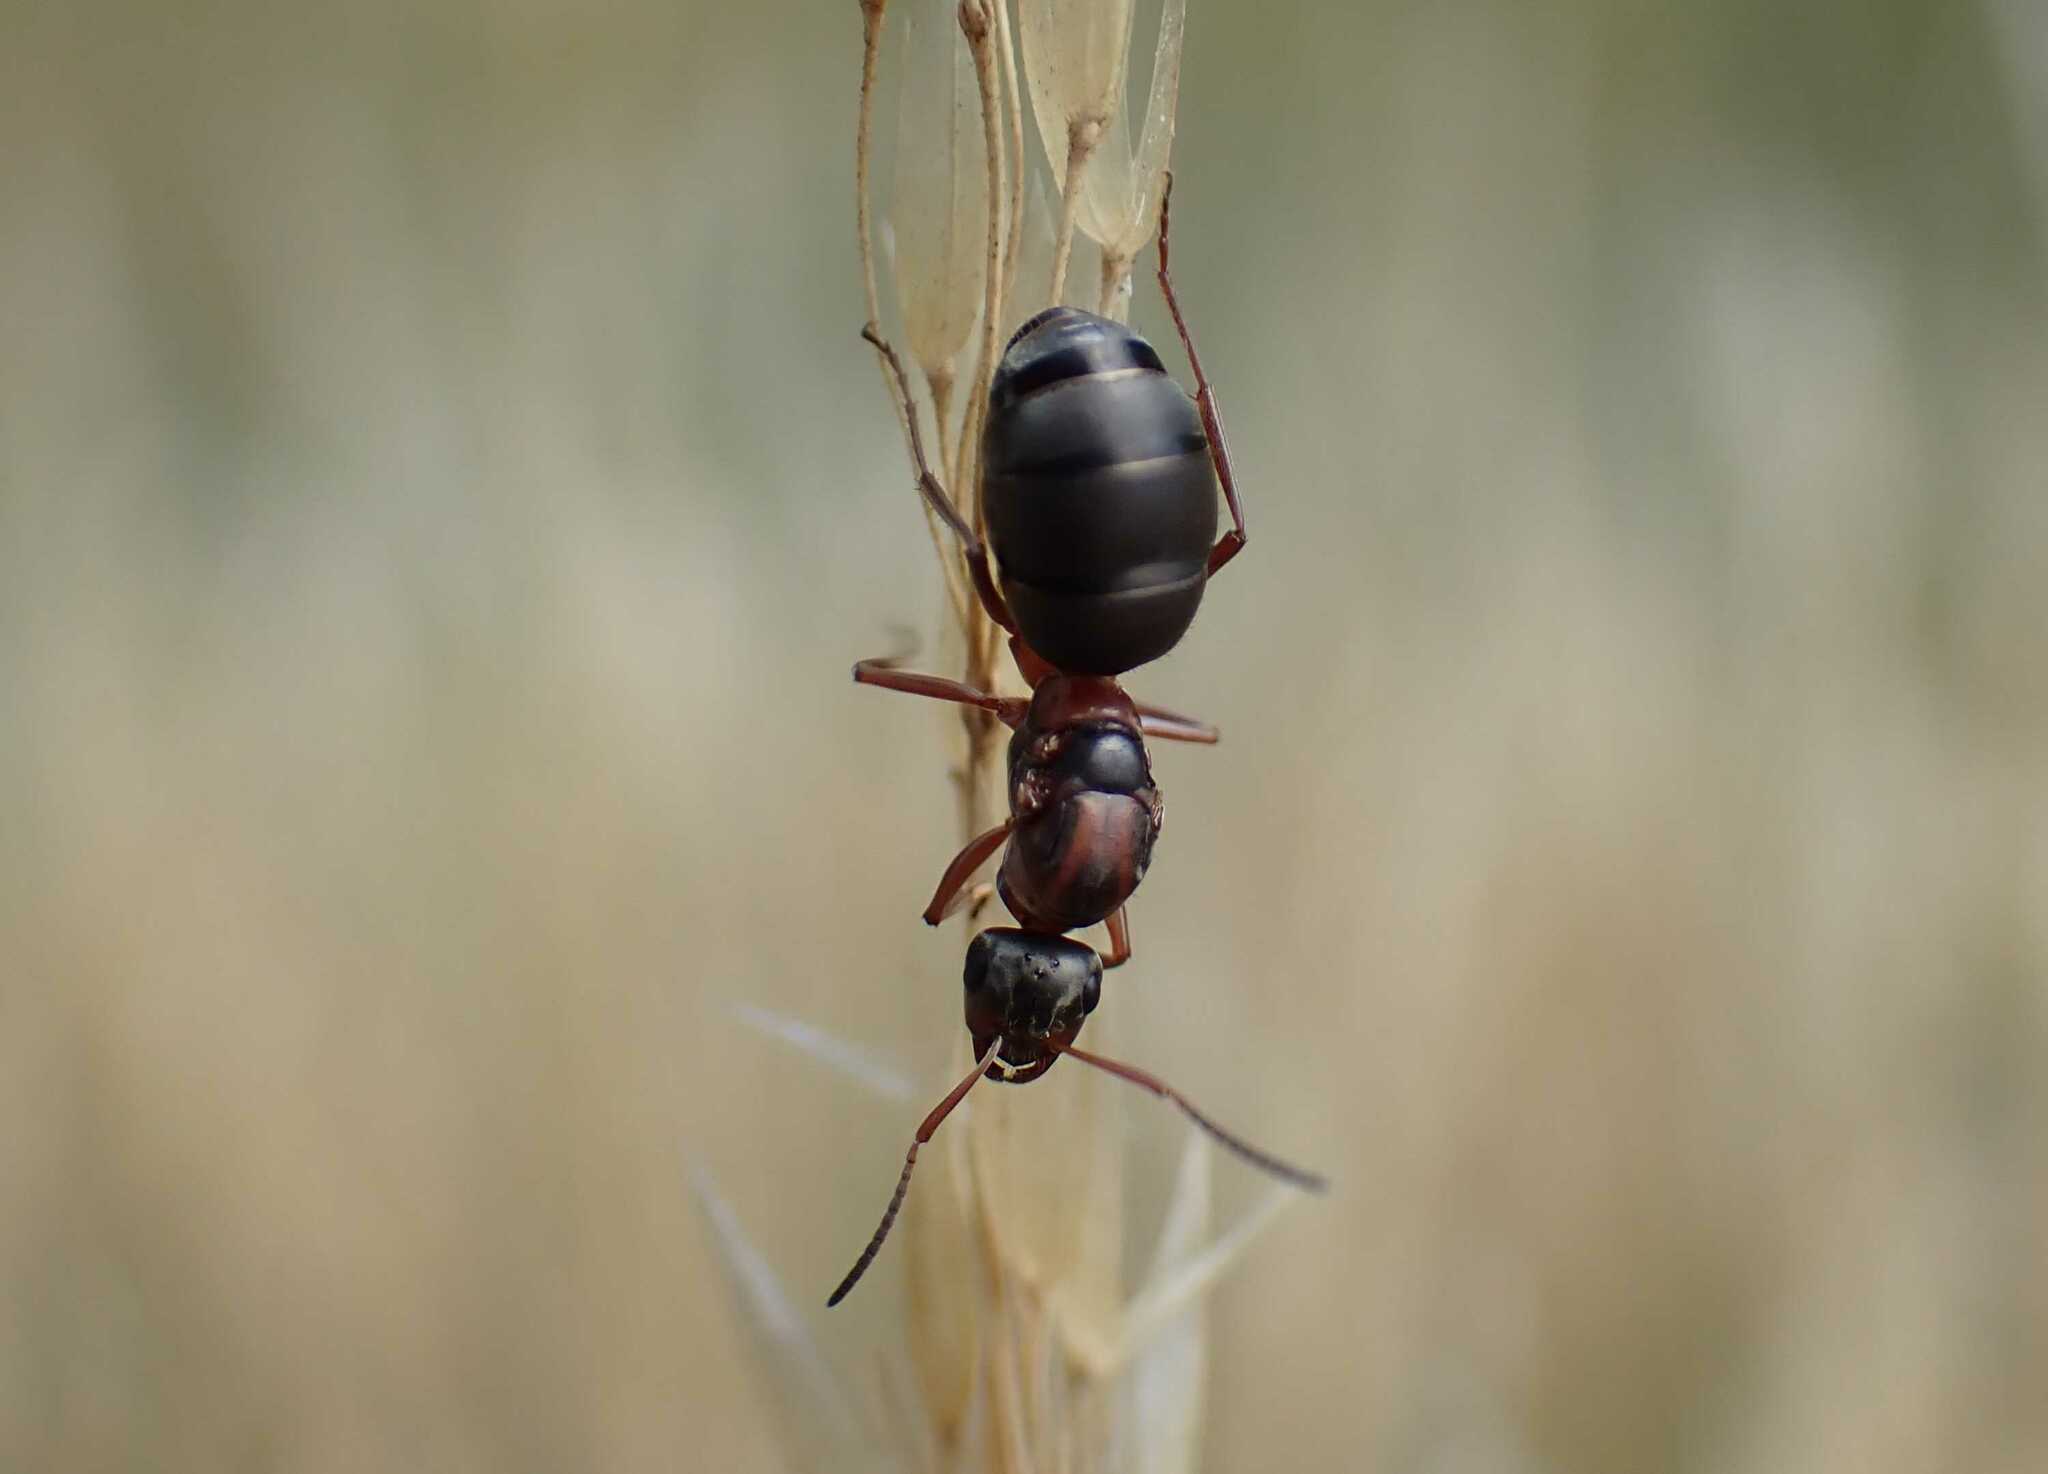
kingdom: Animalia
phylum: Arthropoda
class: Insecta
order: Hymenoptera
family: Formicidae
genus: Formica
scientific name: Formica
